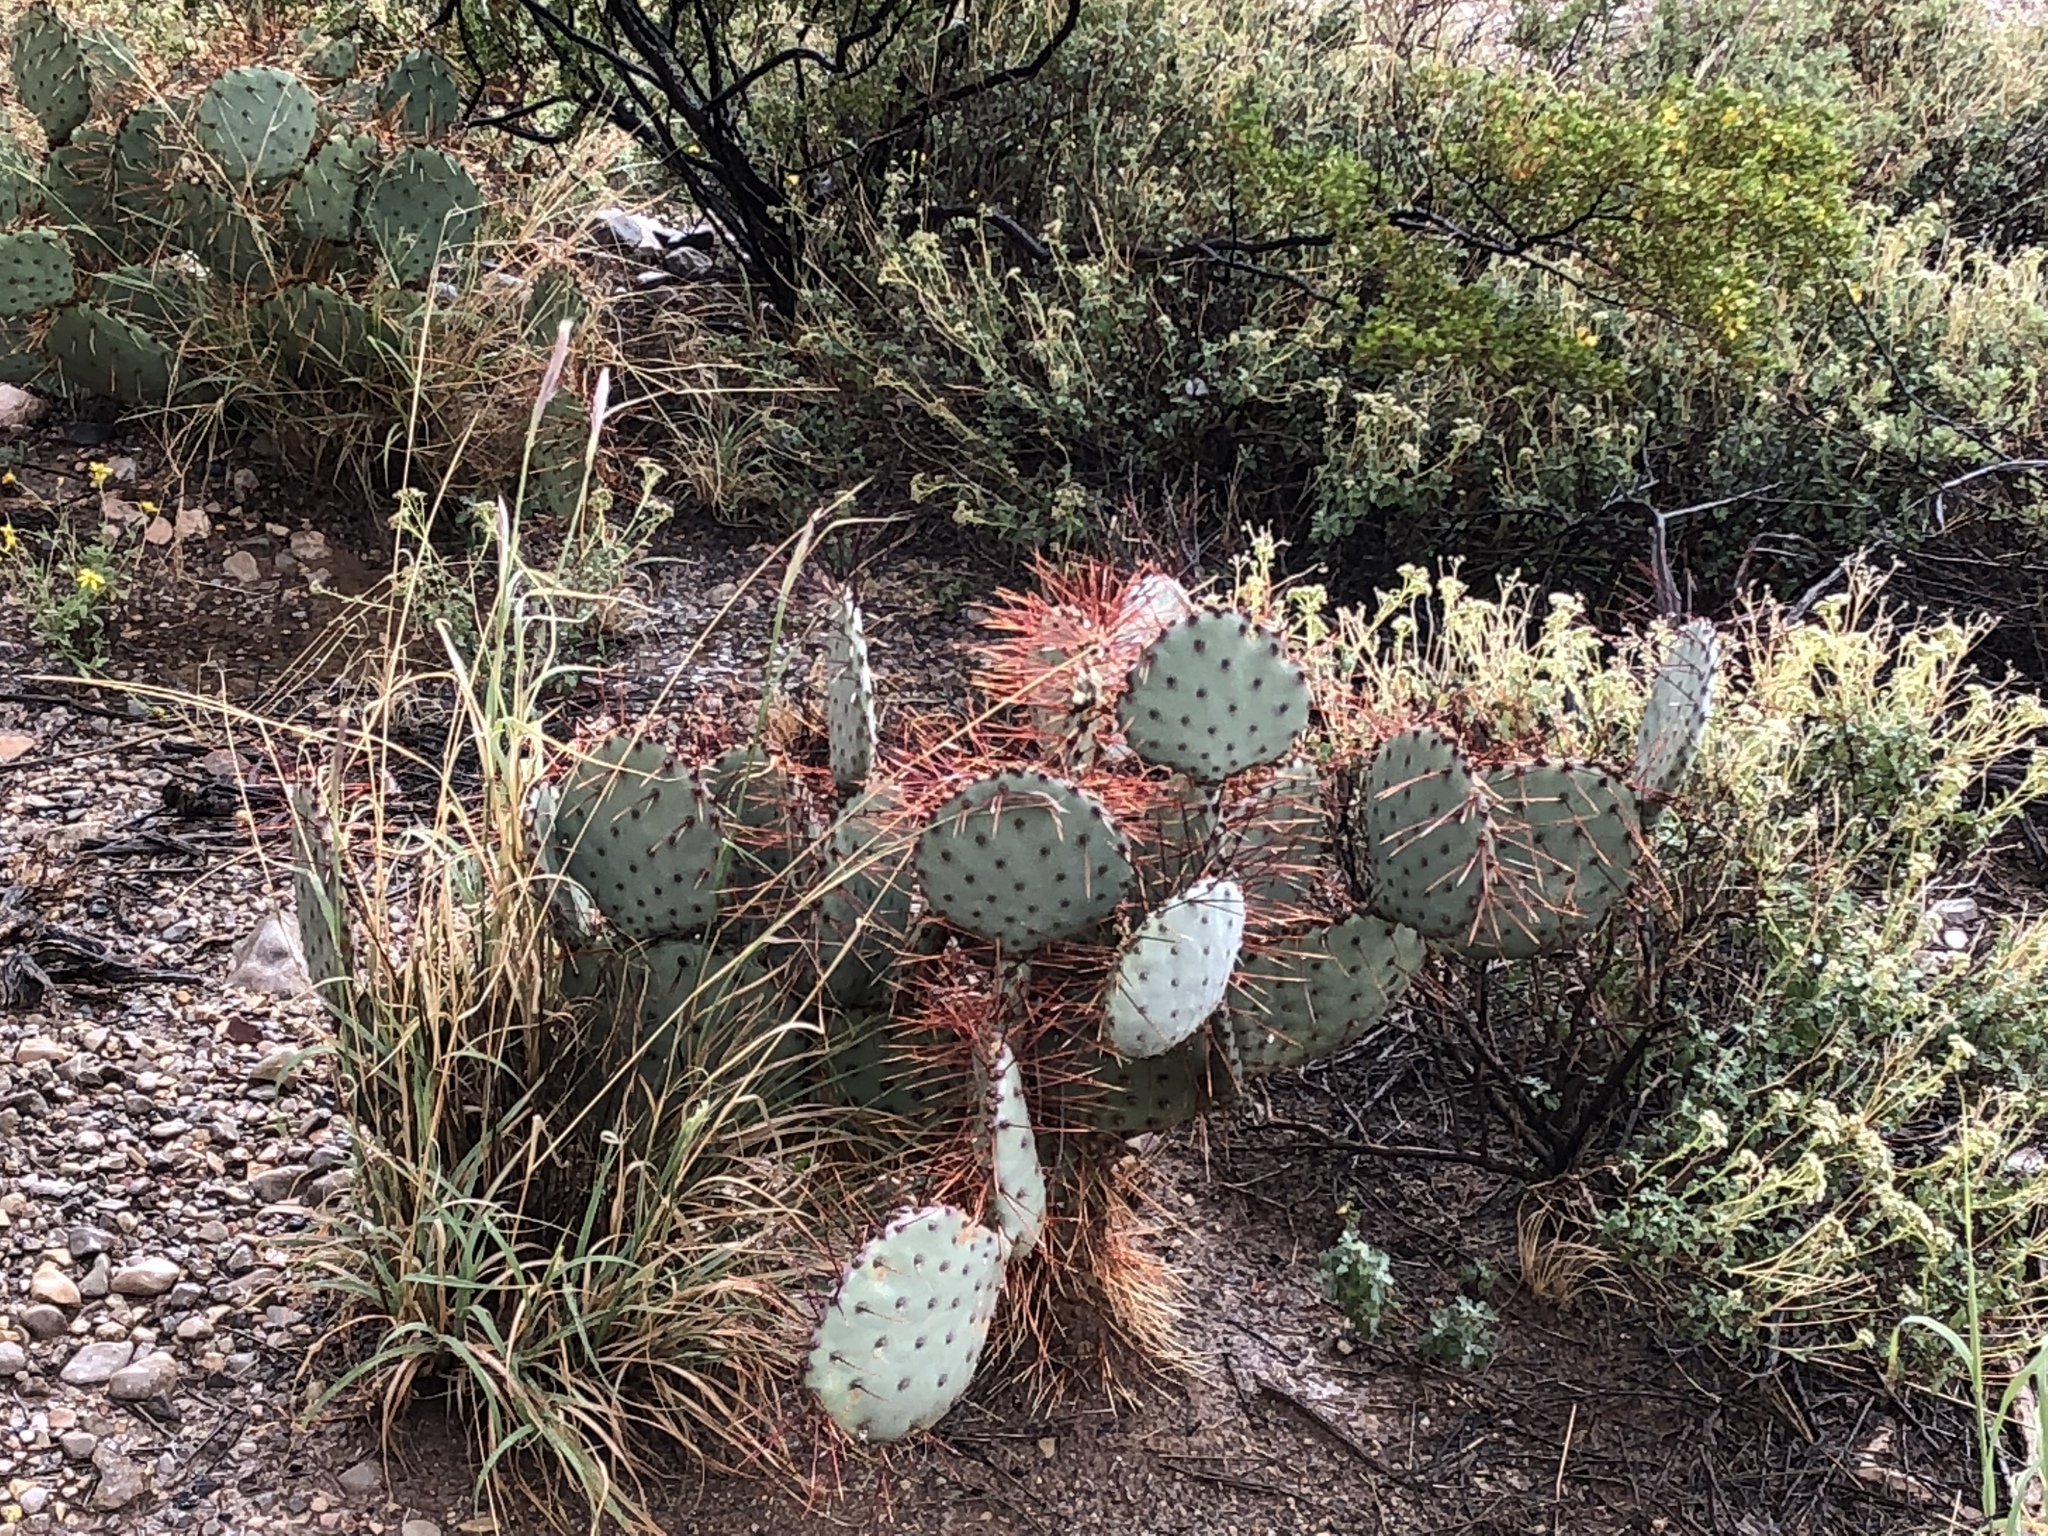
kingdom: Plantae
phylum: Tracheophyta
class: Magnoliopsida
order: Caryophyllales
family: Cactaceae
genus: Opuntia
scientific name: Opuntia macrocentra
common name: Purple prickly-pear
